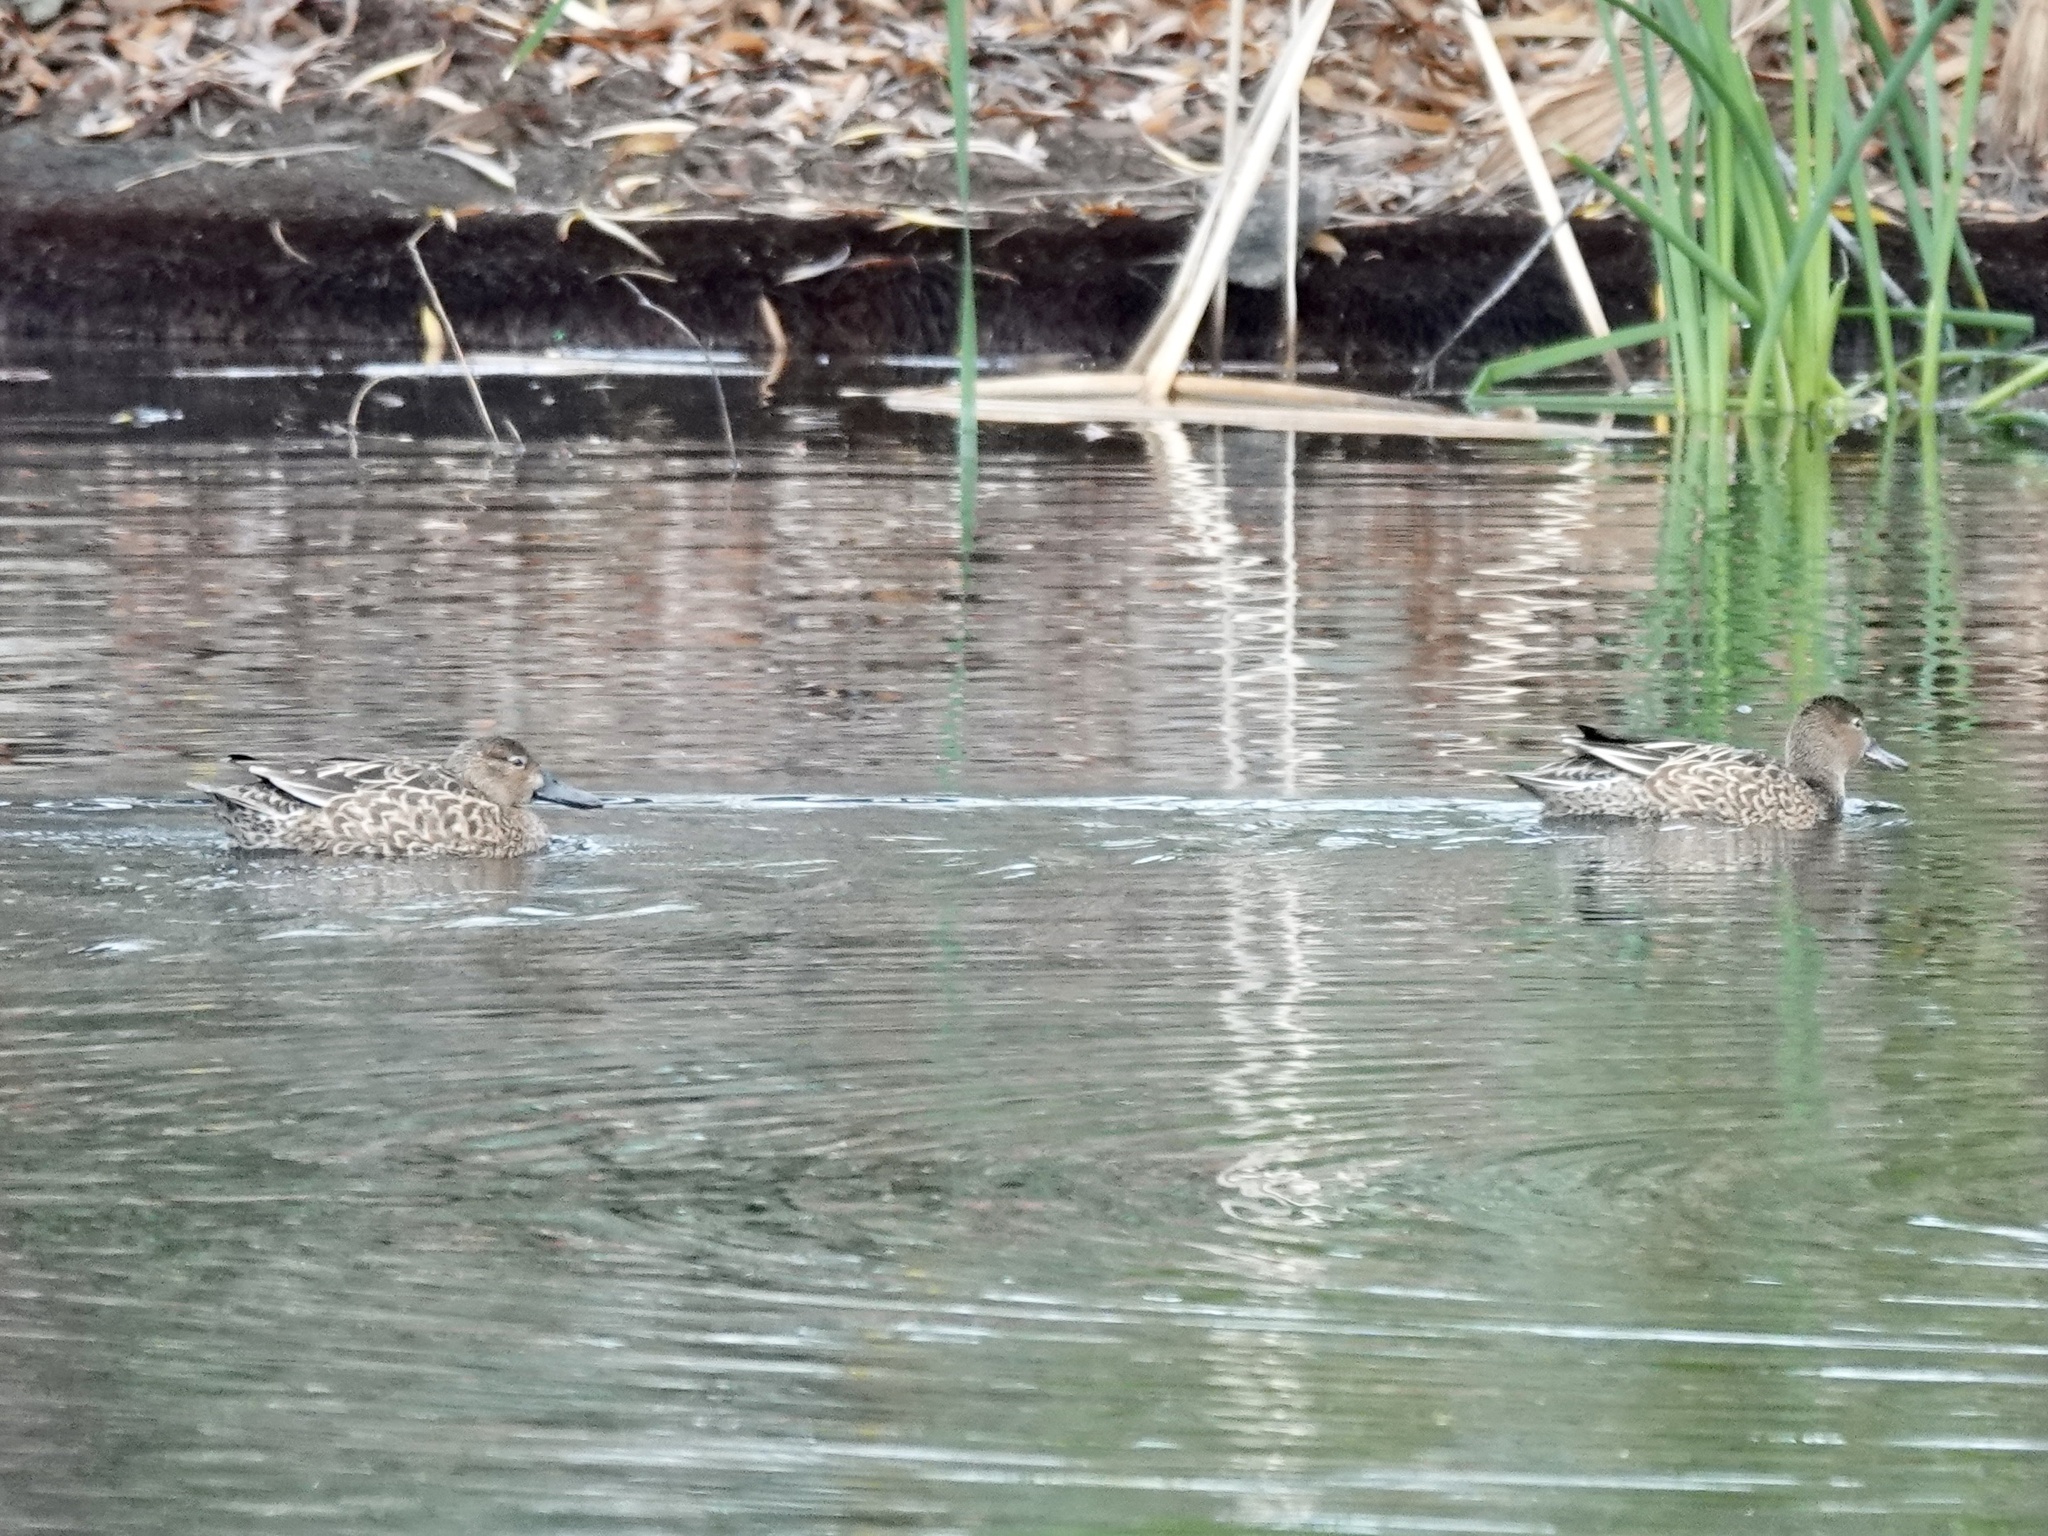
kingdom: Animalia
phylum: Chordata
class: Aves
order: Anseriformes
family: Anatidae
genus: Spatula
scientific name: Spatula cyanoptera
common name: Cinnamon teal
